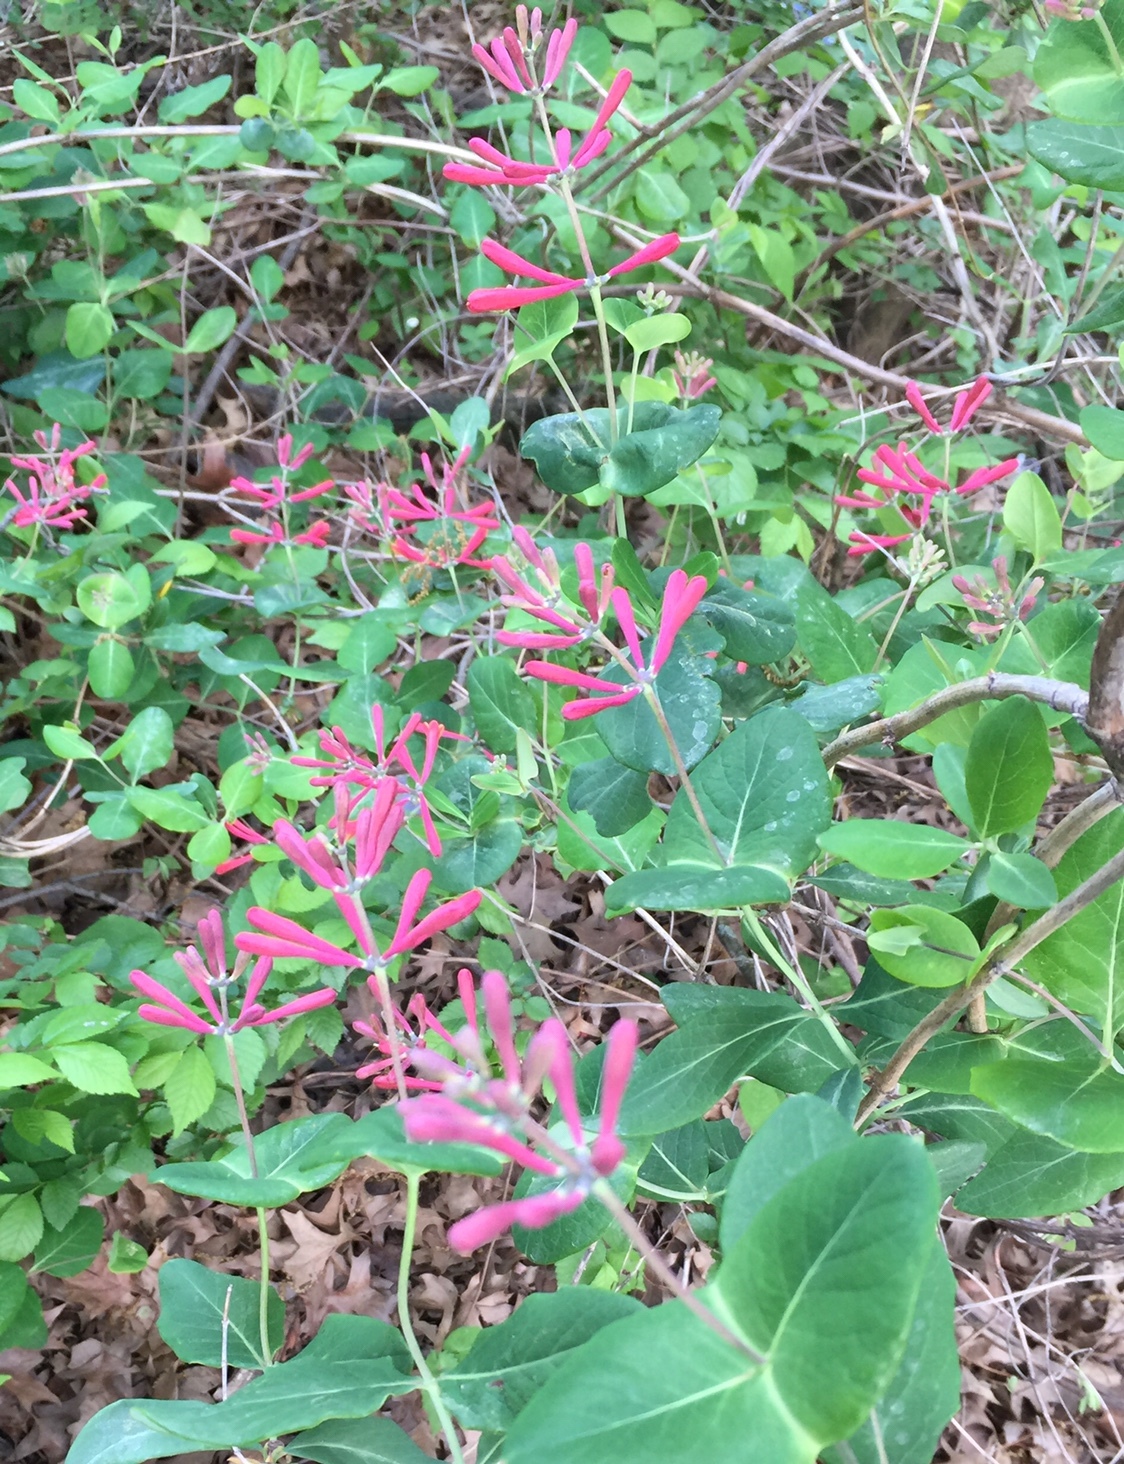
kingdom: Plantae
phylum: Tracheophyta
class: Magnoliopsida
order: Dipsacales
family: Caprifoliaceae
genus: Lonicera
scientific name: Lonicera sempervirens
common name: Coral honeysuckle
